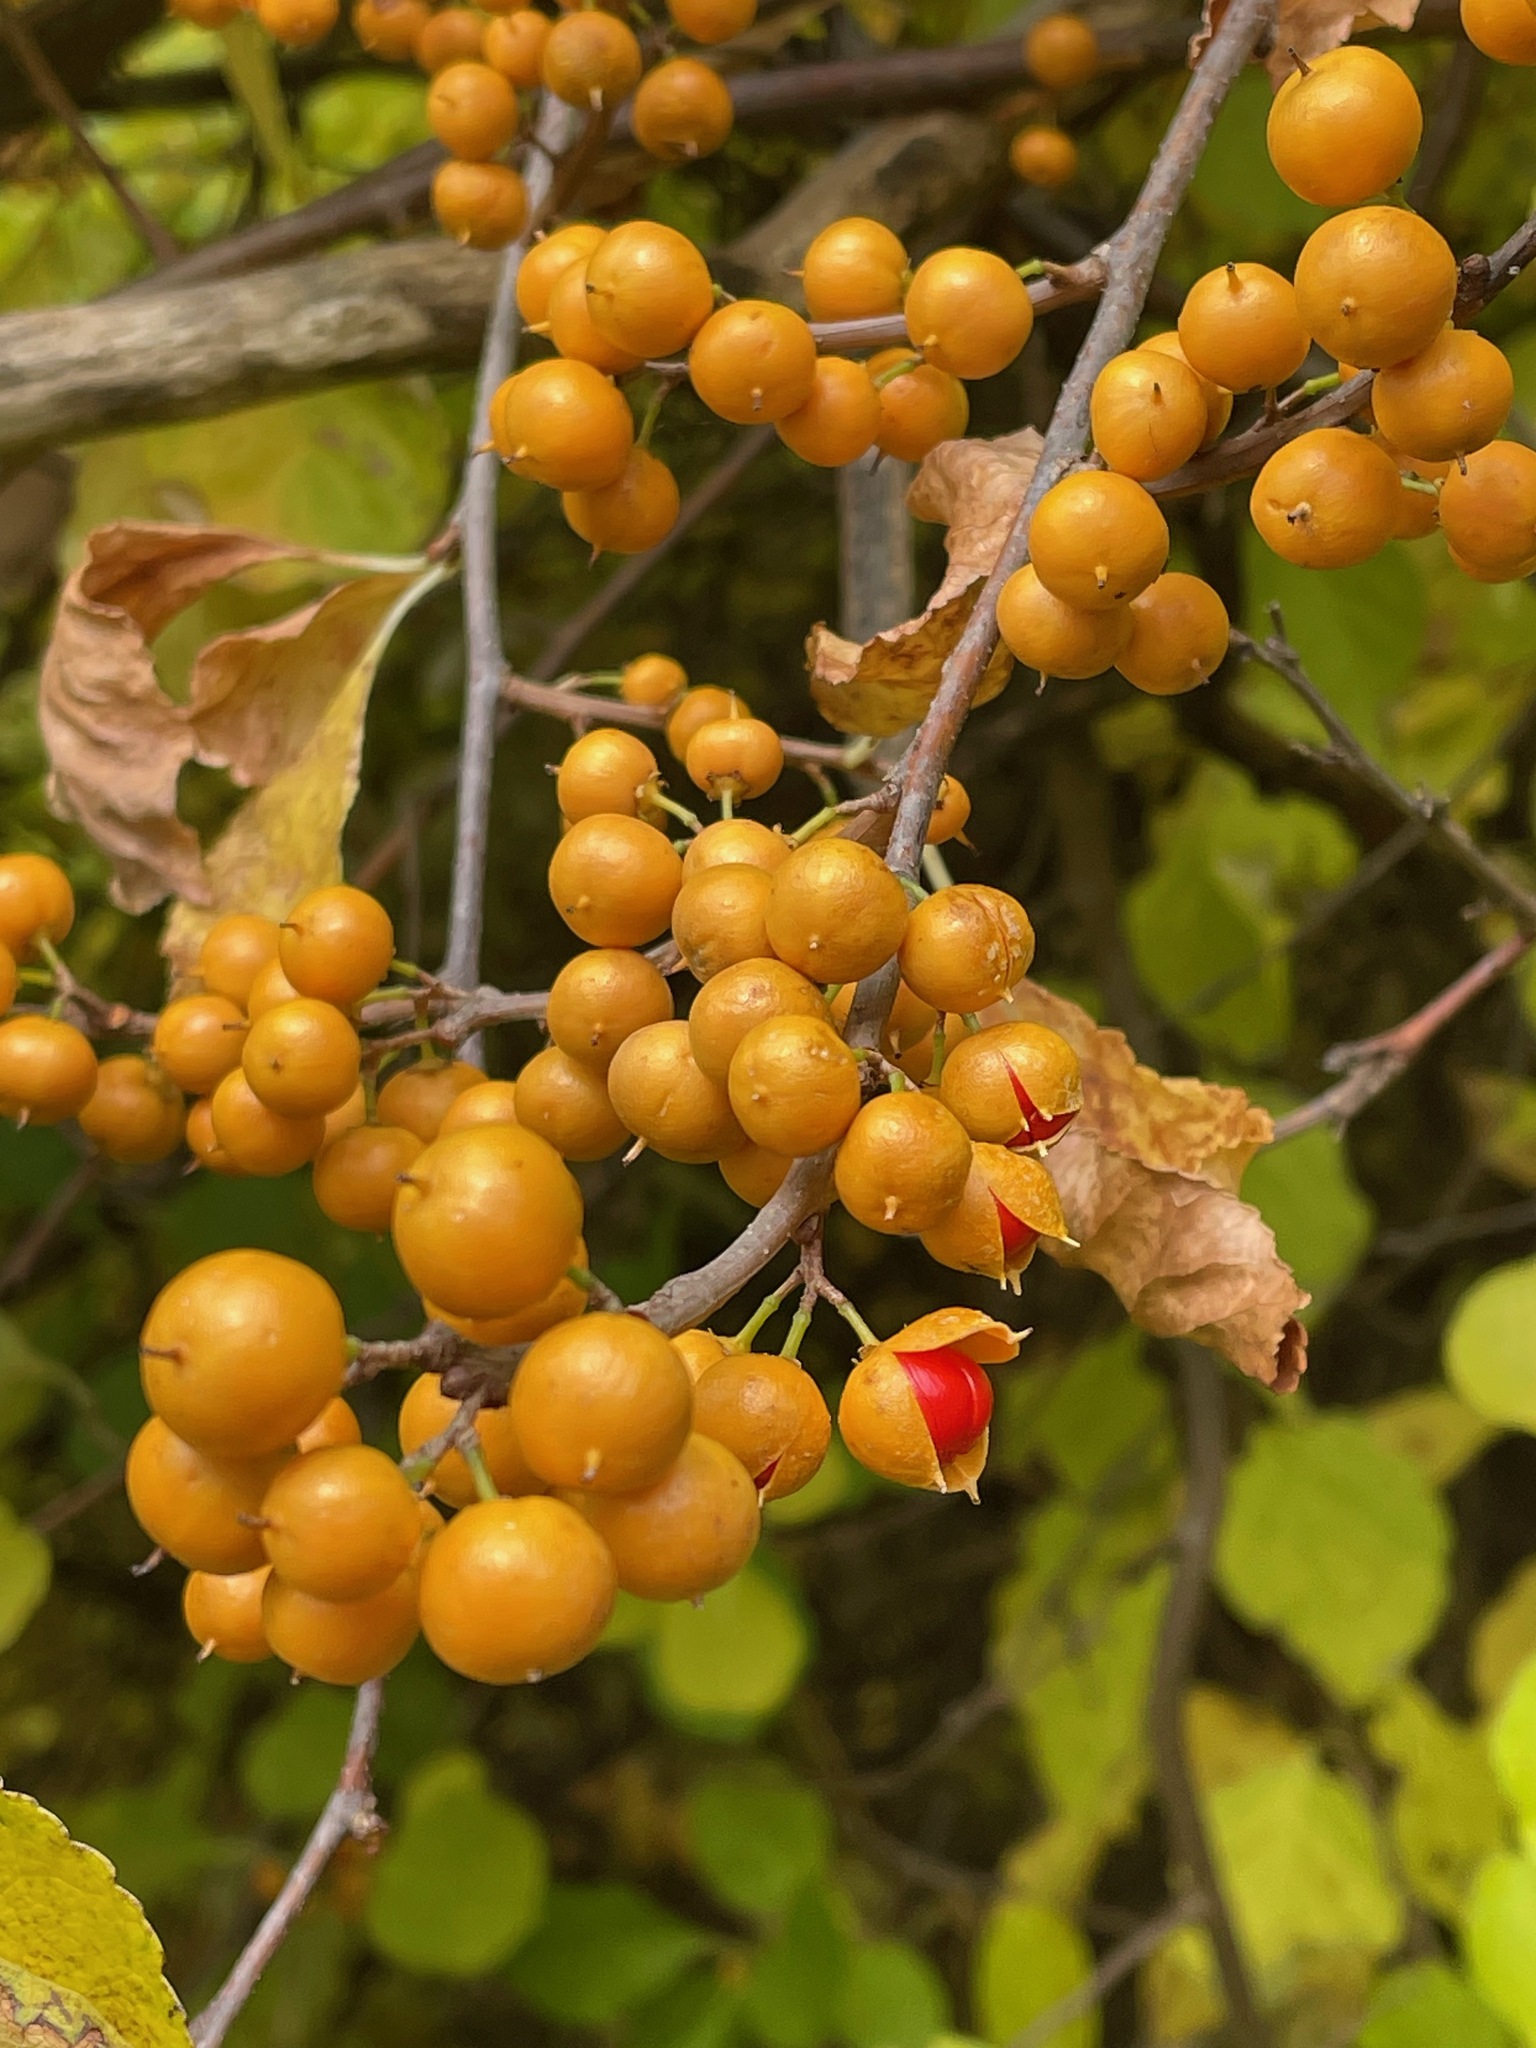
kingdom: Plantae
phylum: Tracheophyta
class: Magnoliopsida
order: Celastrales
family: Celastraceae
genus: Celastrus
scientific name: Celastrus orbiculatus
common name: Oriental bittersweet
